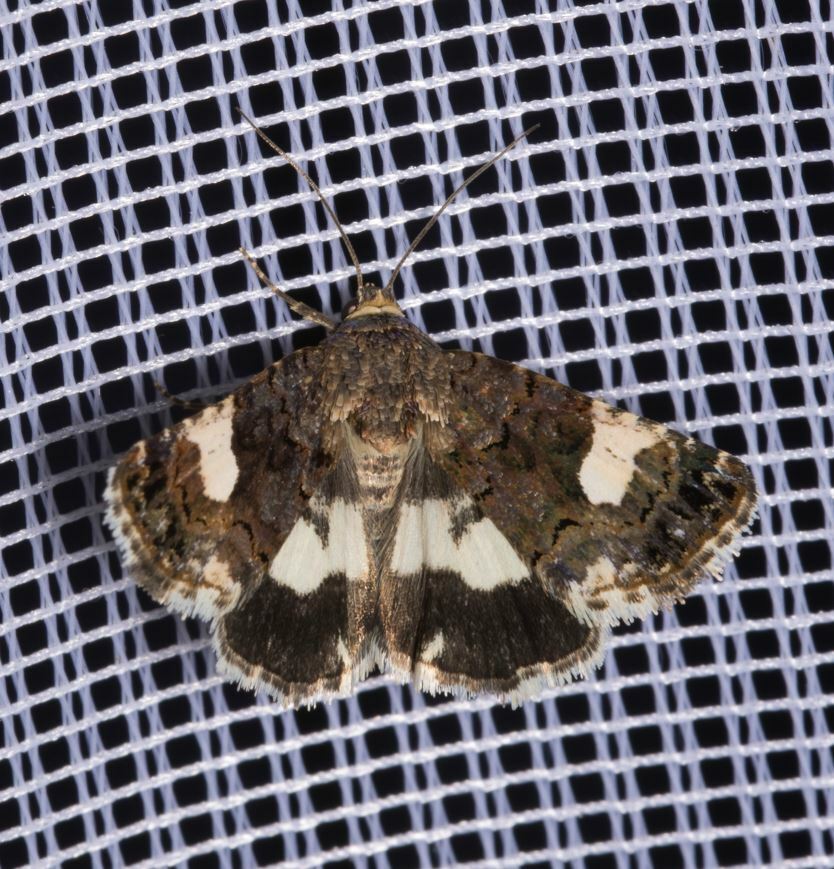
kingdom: Animalia
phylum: Arthropoda
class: Insecta
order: Lepidoptera
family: Erebidae
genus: Tyta
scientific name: Tyta luctuosa
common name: Four-spotted
